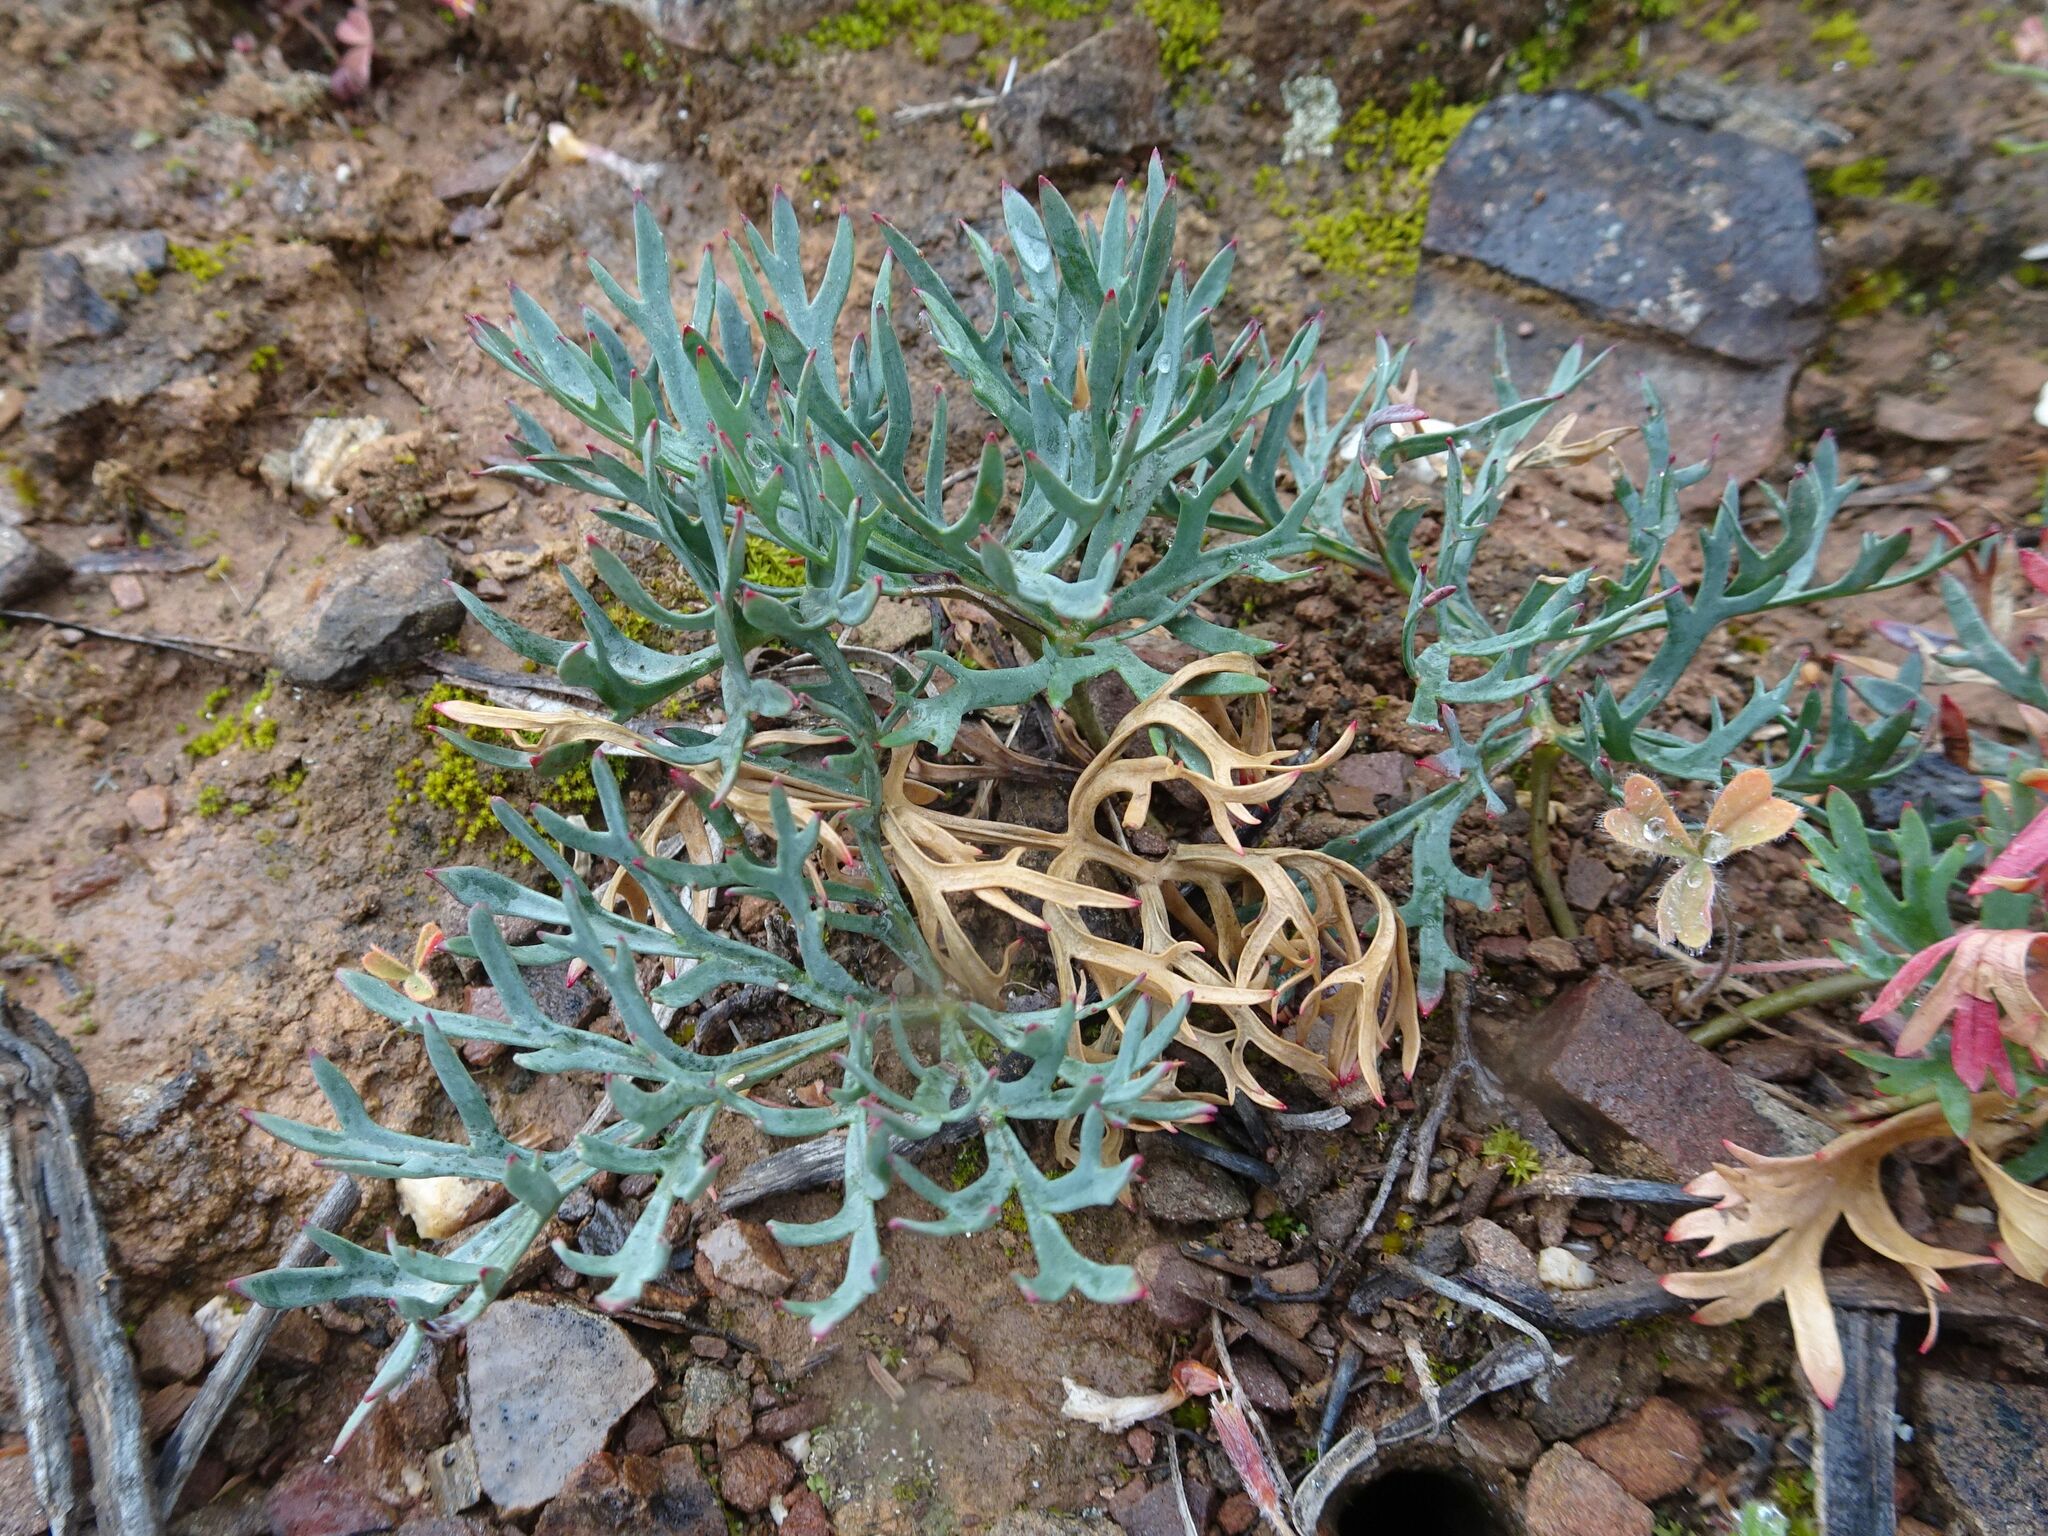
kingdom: Plantae
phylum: Tracheophyta
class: Magnoliopsida
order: Geraniales
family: Geraniaceae
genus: Pelargonium
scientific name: Pelargonium pillansii
